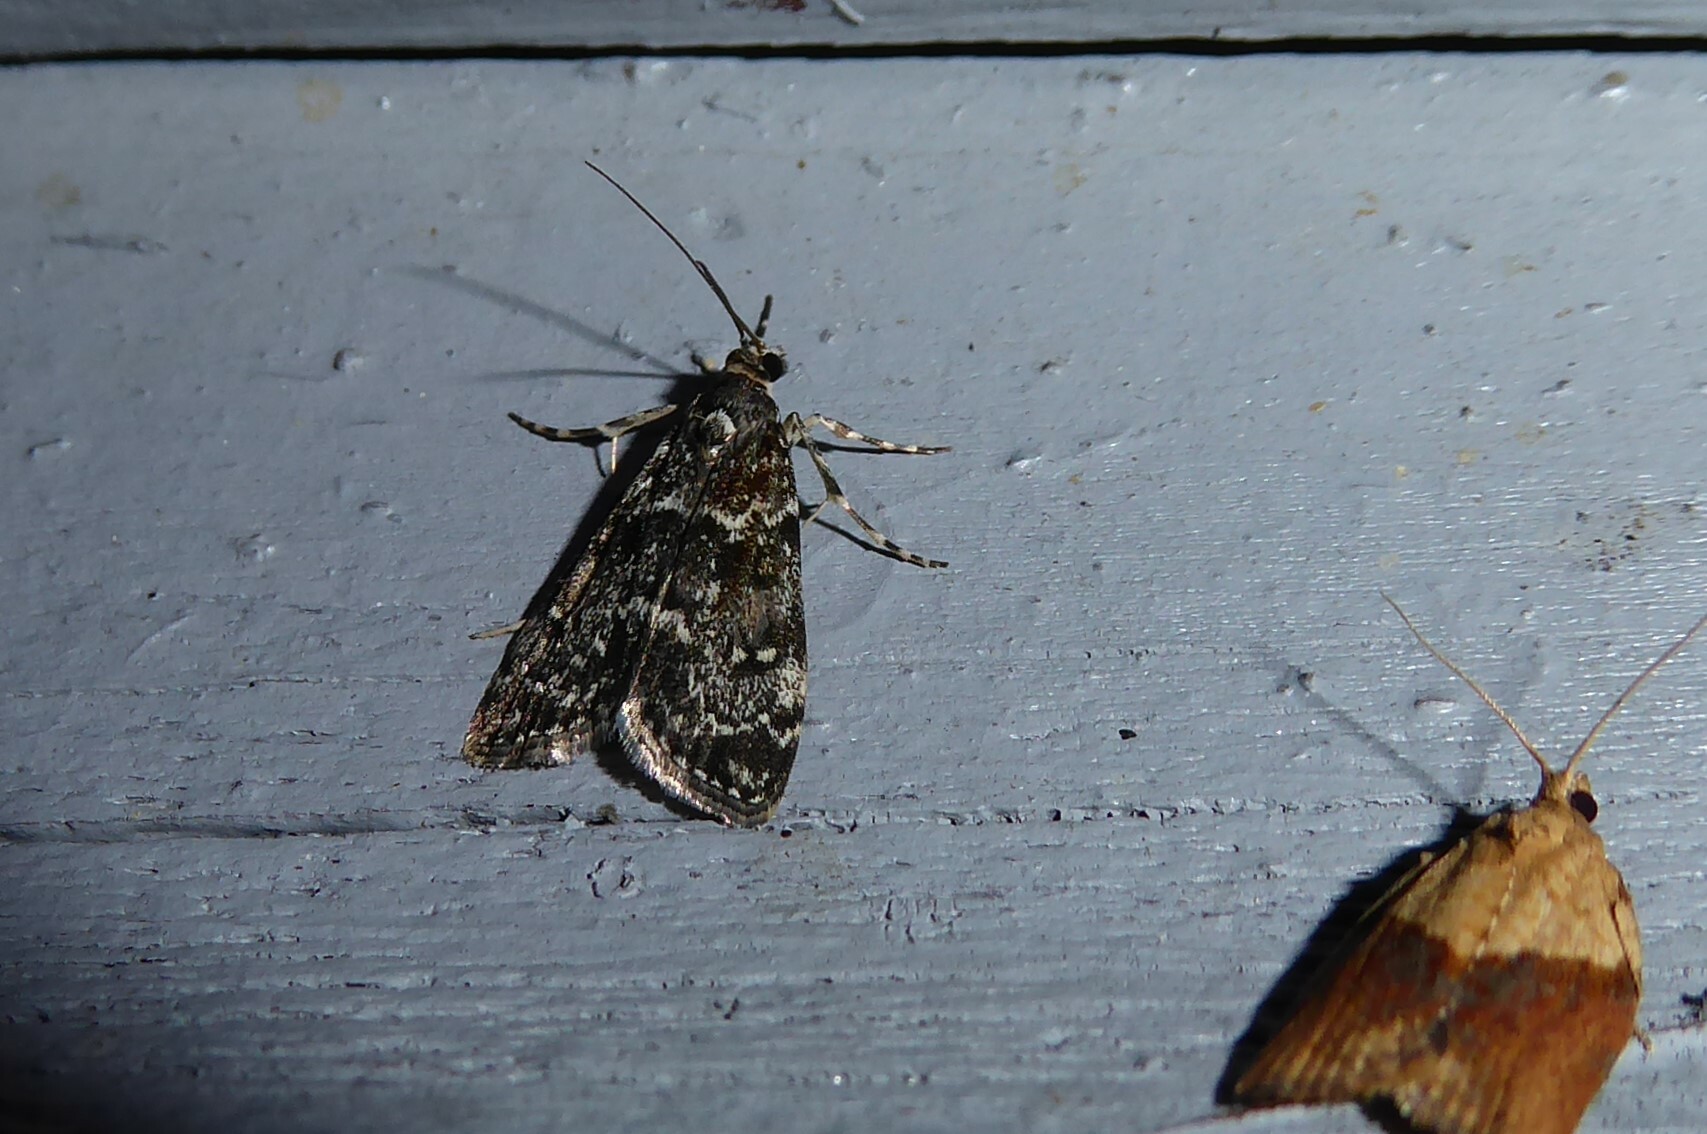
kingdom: Animalia
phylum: Arthropoda
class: Insecta
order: Lepidoptera
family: Crambidae
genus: Eudonia
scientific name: Eudonia philerga
